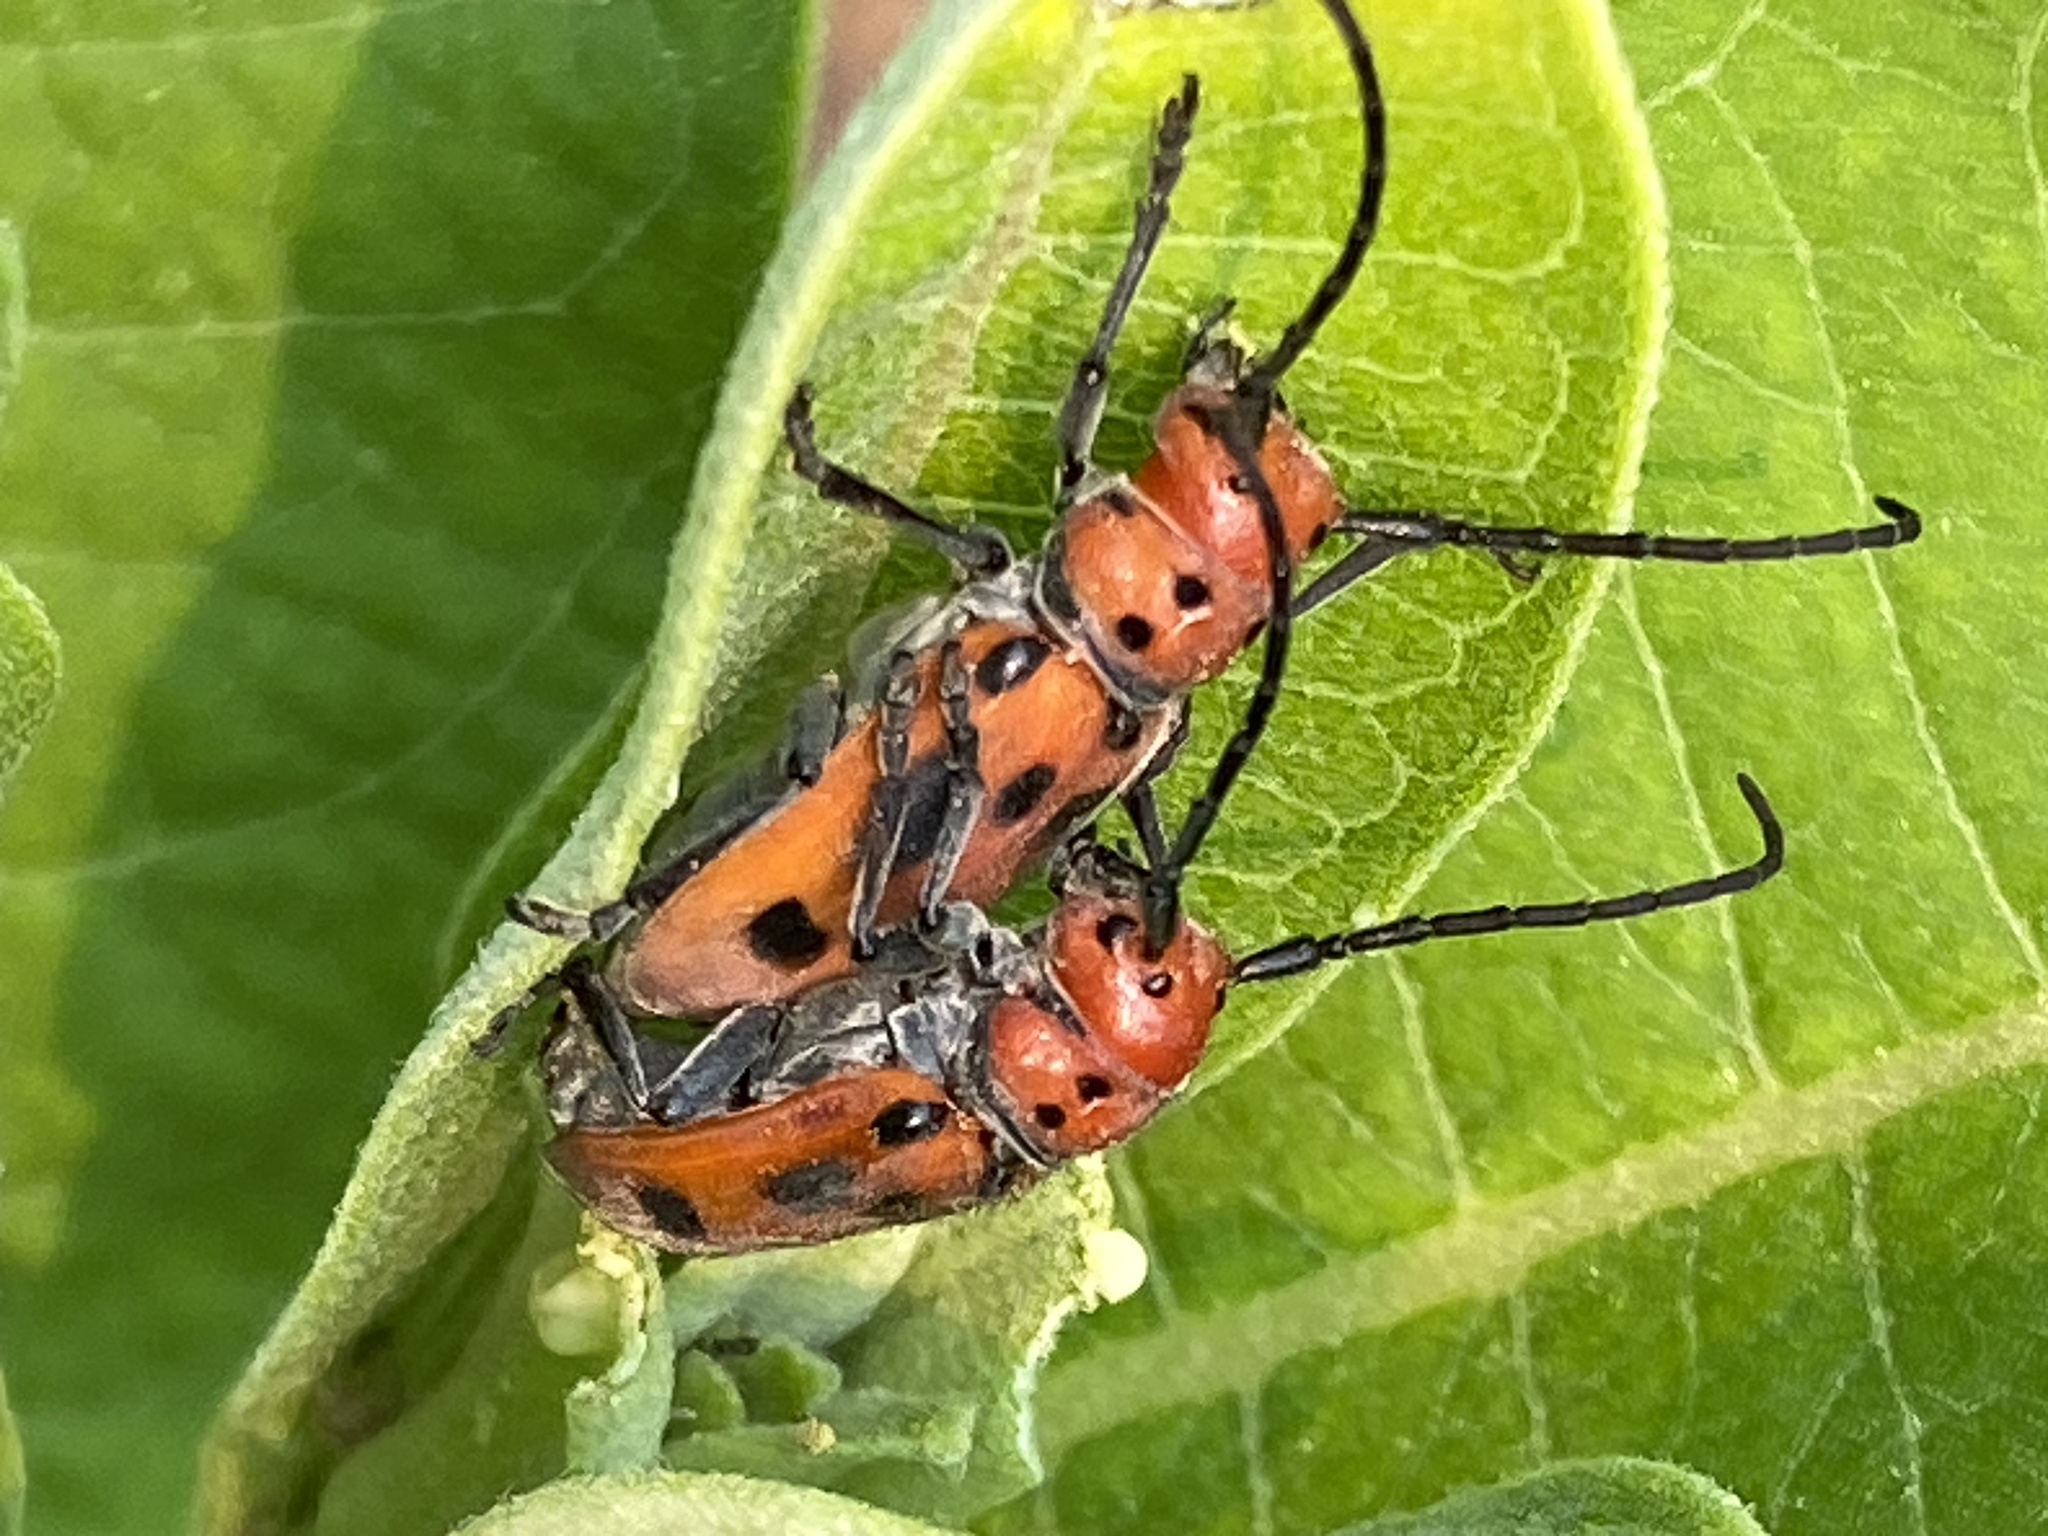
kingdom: Animalia
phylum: Arthropoda
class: Insecta
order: Coleoptera
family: Cerambycidae
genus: Tetraopes
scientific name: Tetraopes tetrophthalmus
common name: Red milkweed beetle
